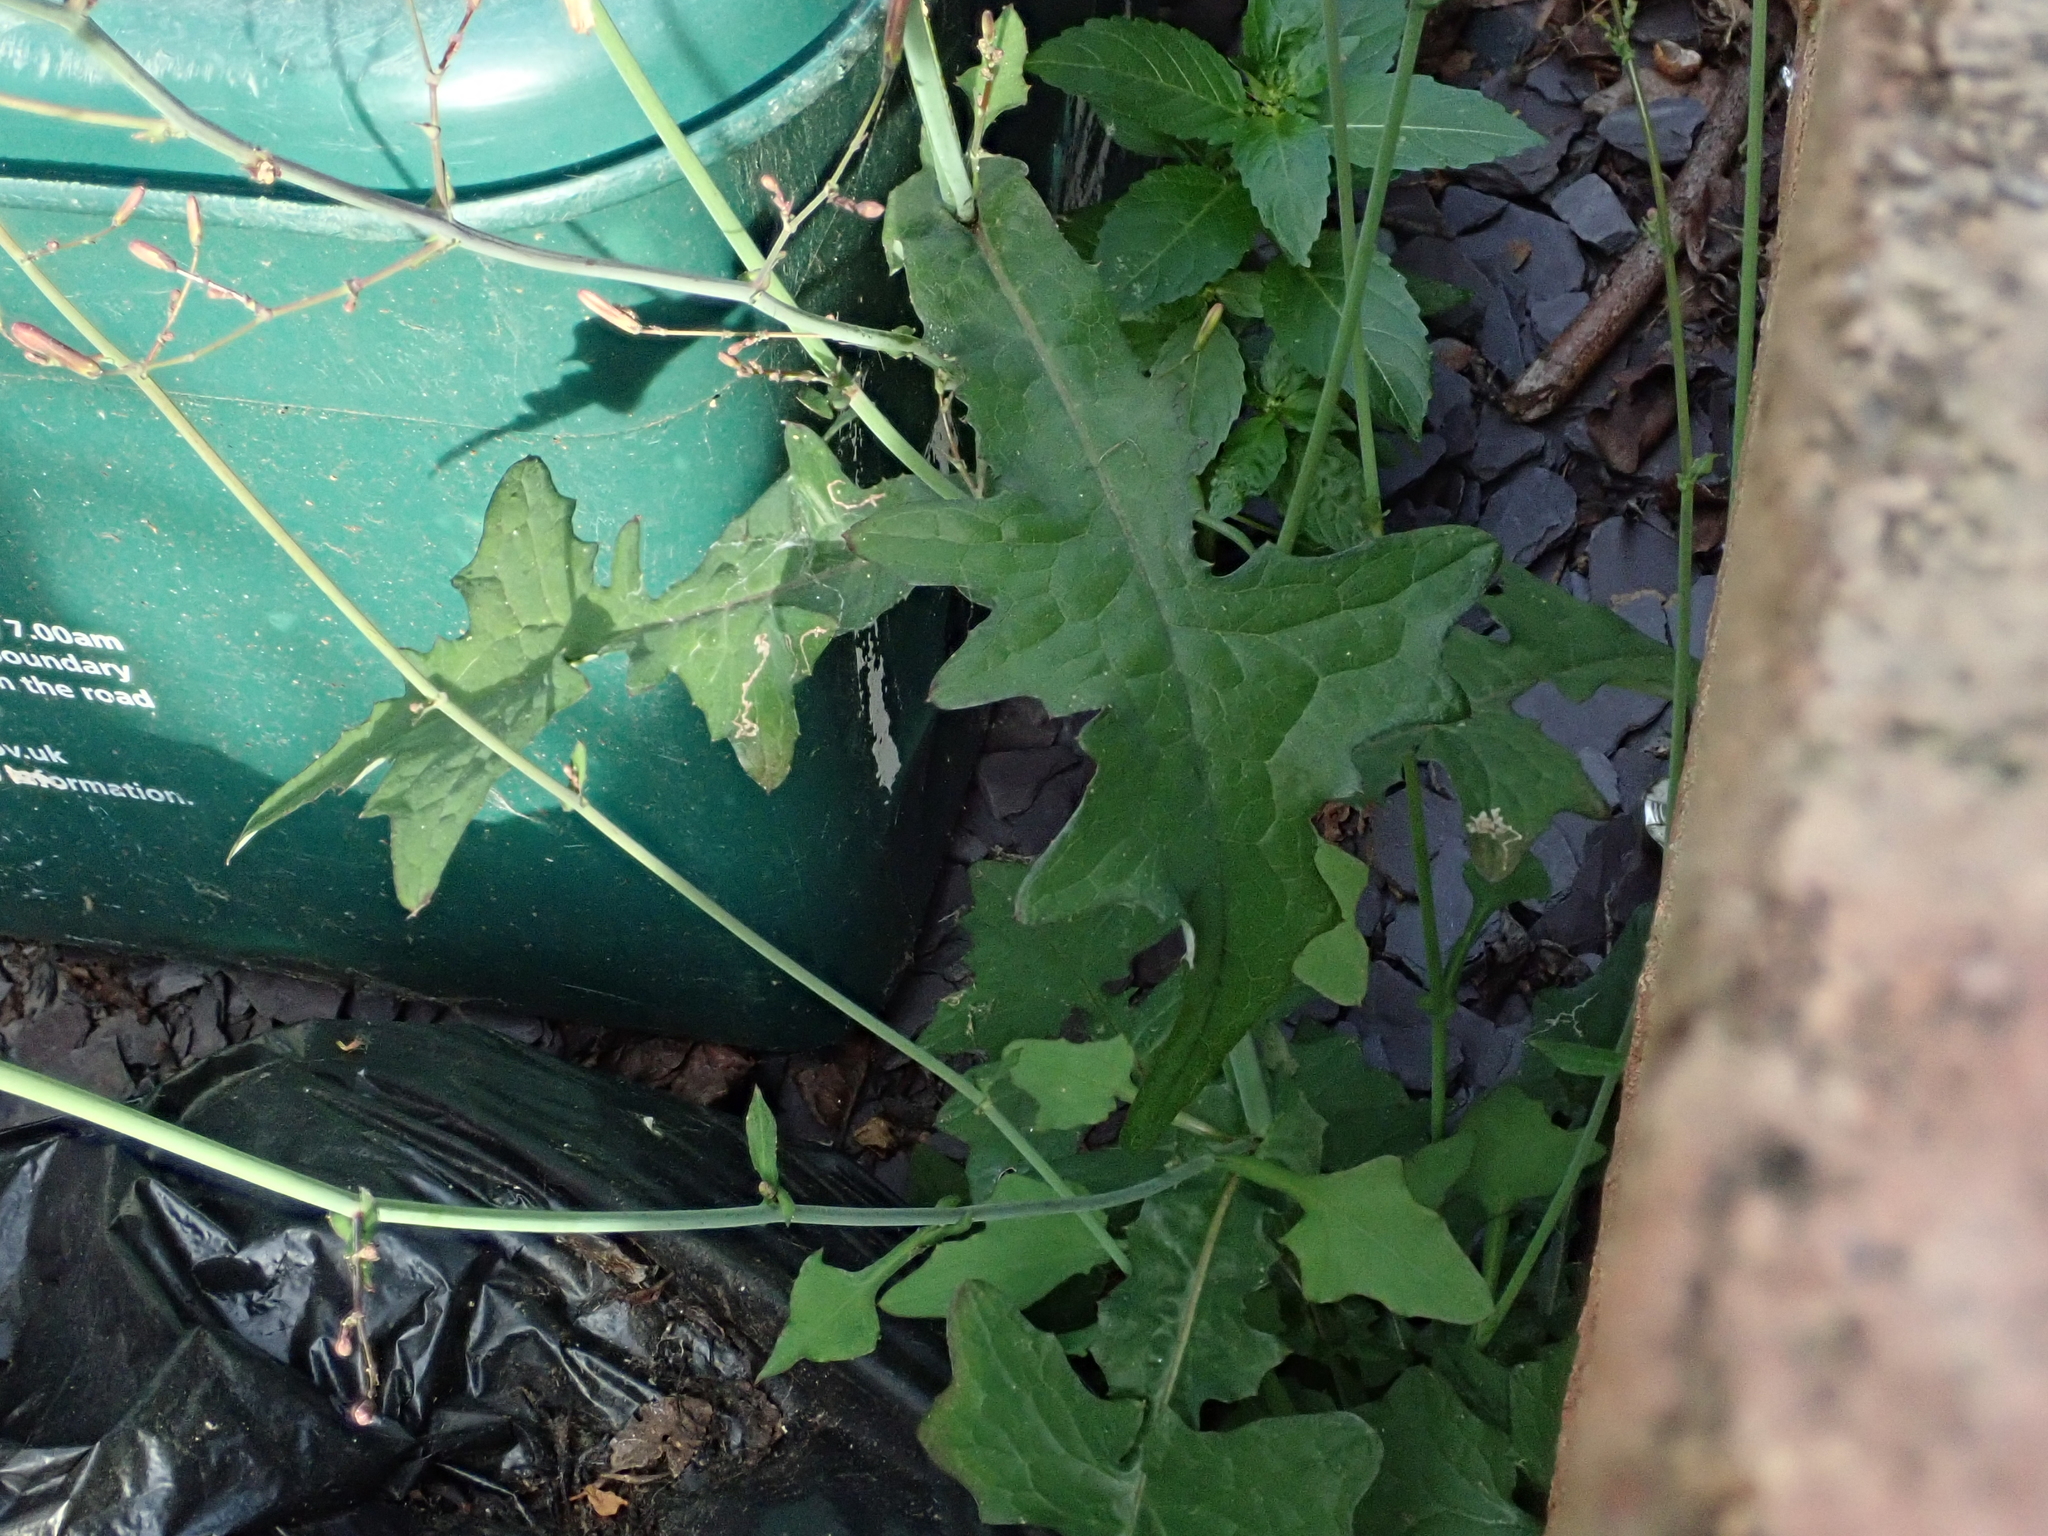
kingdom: Plantae
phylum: Tracheophyta
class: Magnoliopsida
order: Asterales
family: Asteraceae
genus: Mycelis
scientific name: Mycelis muralis
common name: Wall lettuce
